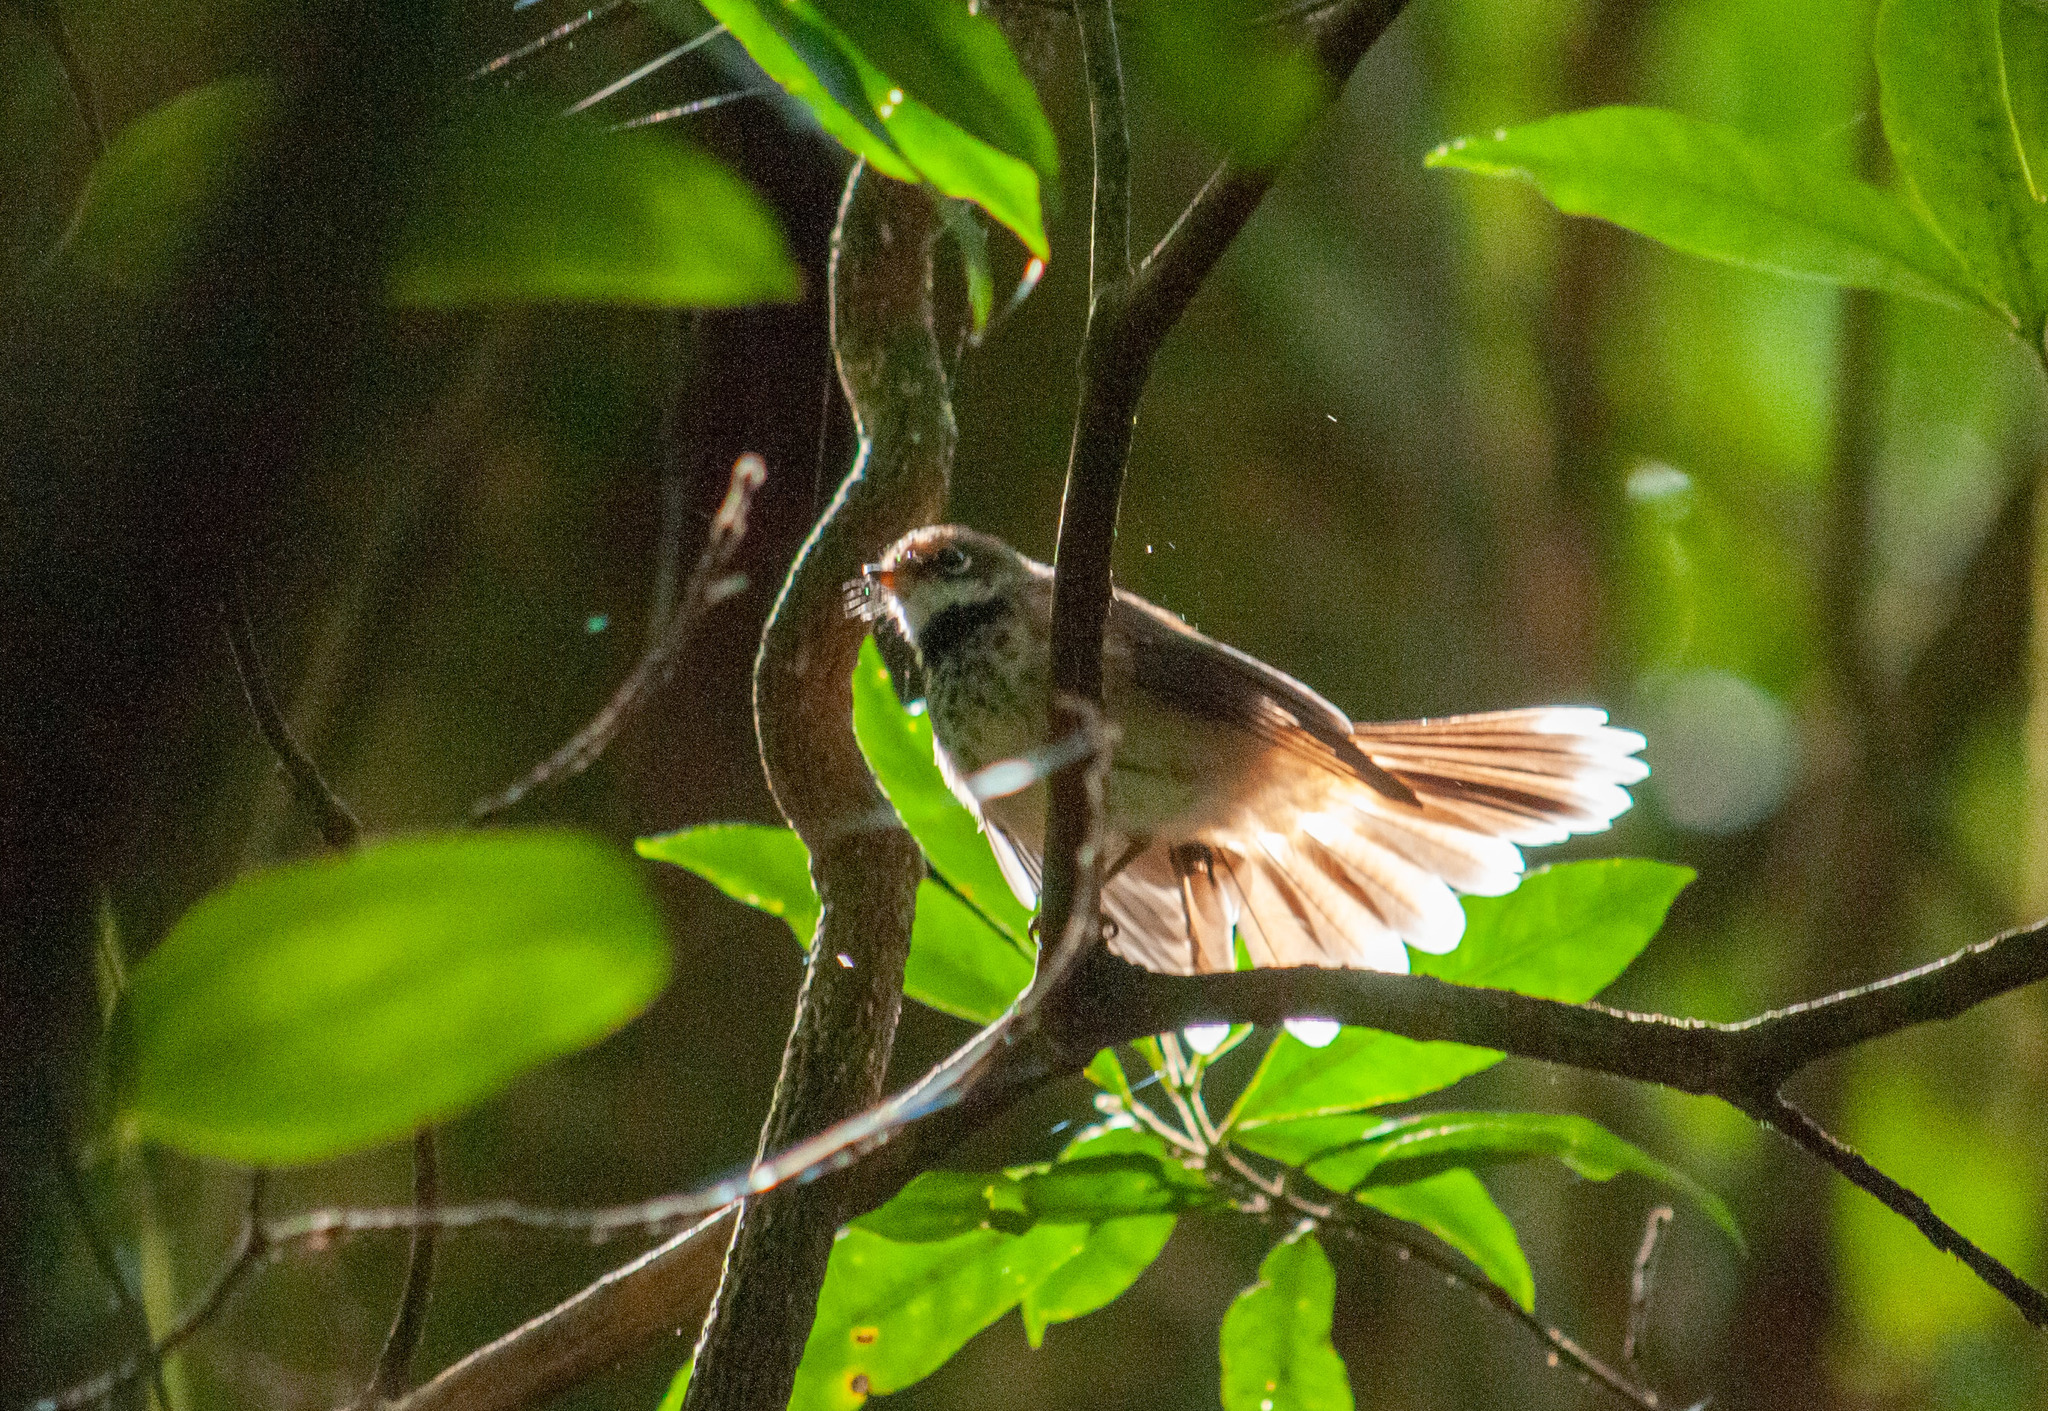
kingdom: Animalia
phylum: Chordata
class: Aves
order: Passeriformes
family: Rhipiduridae
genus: Rhipidura
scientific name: Rhipidura rufifrons
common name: Rufous fantail
